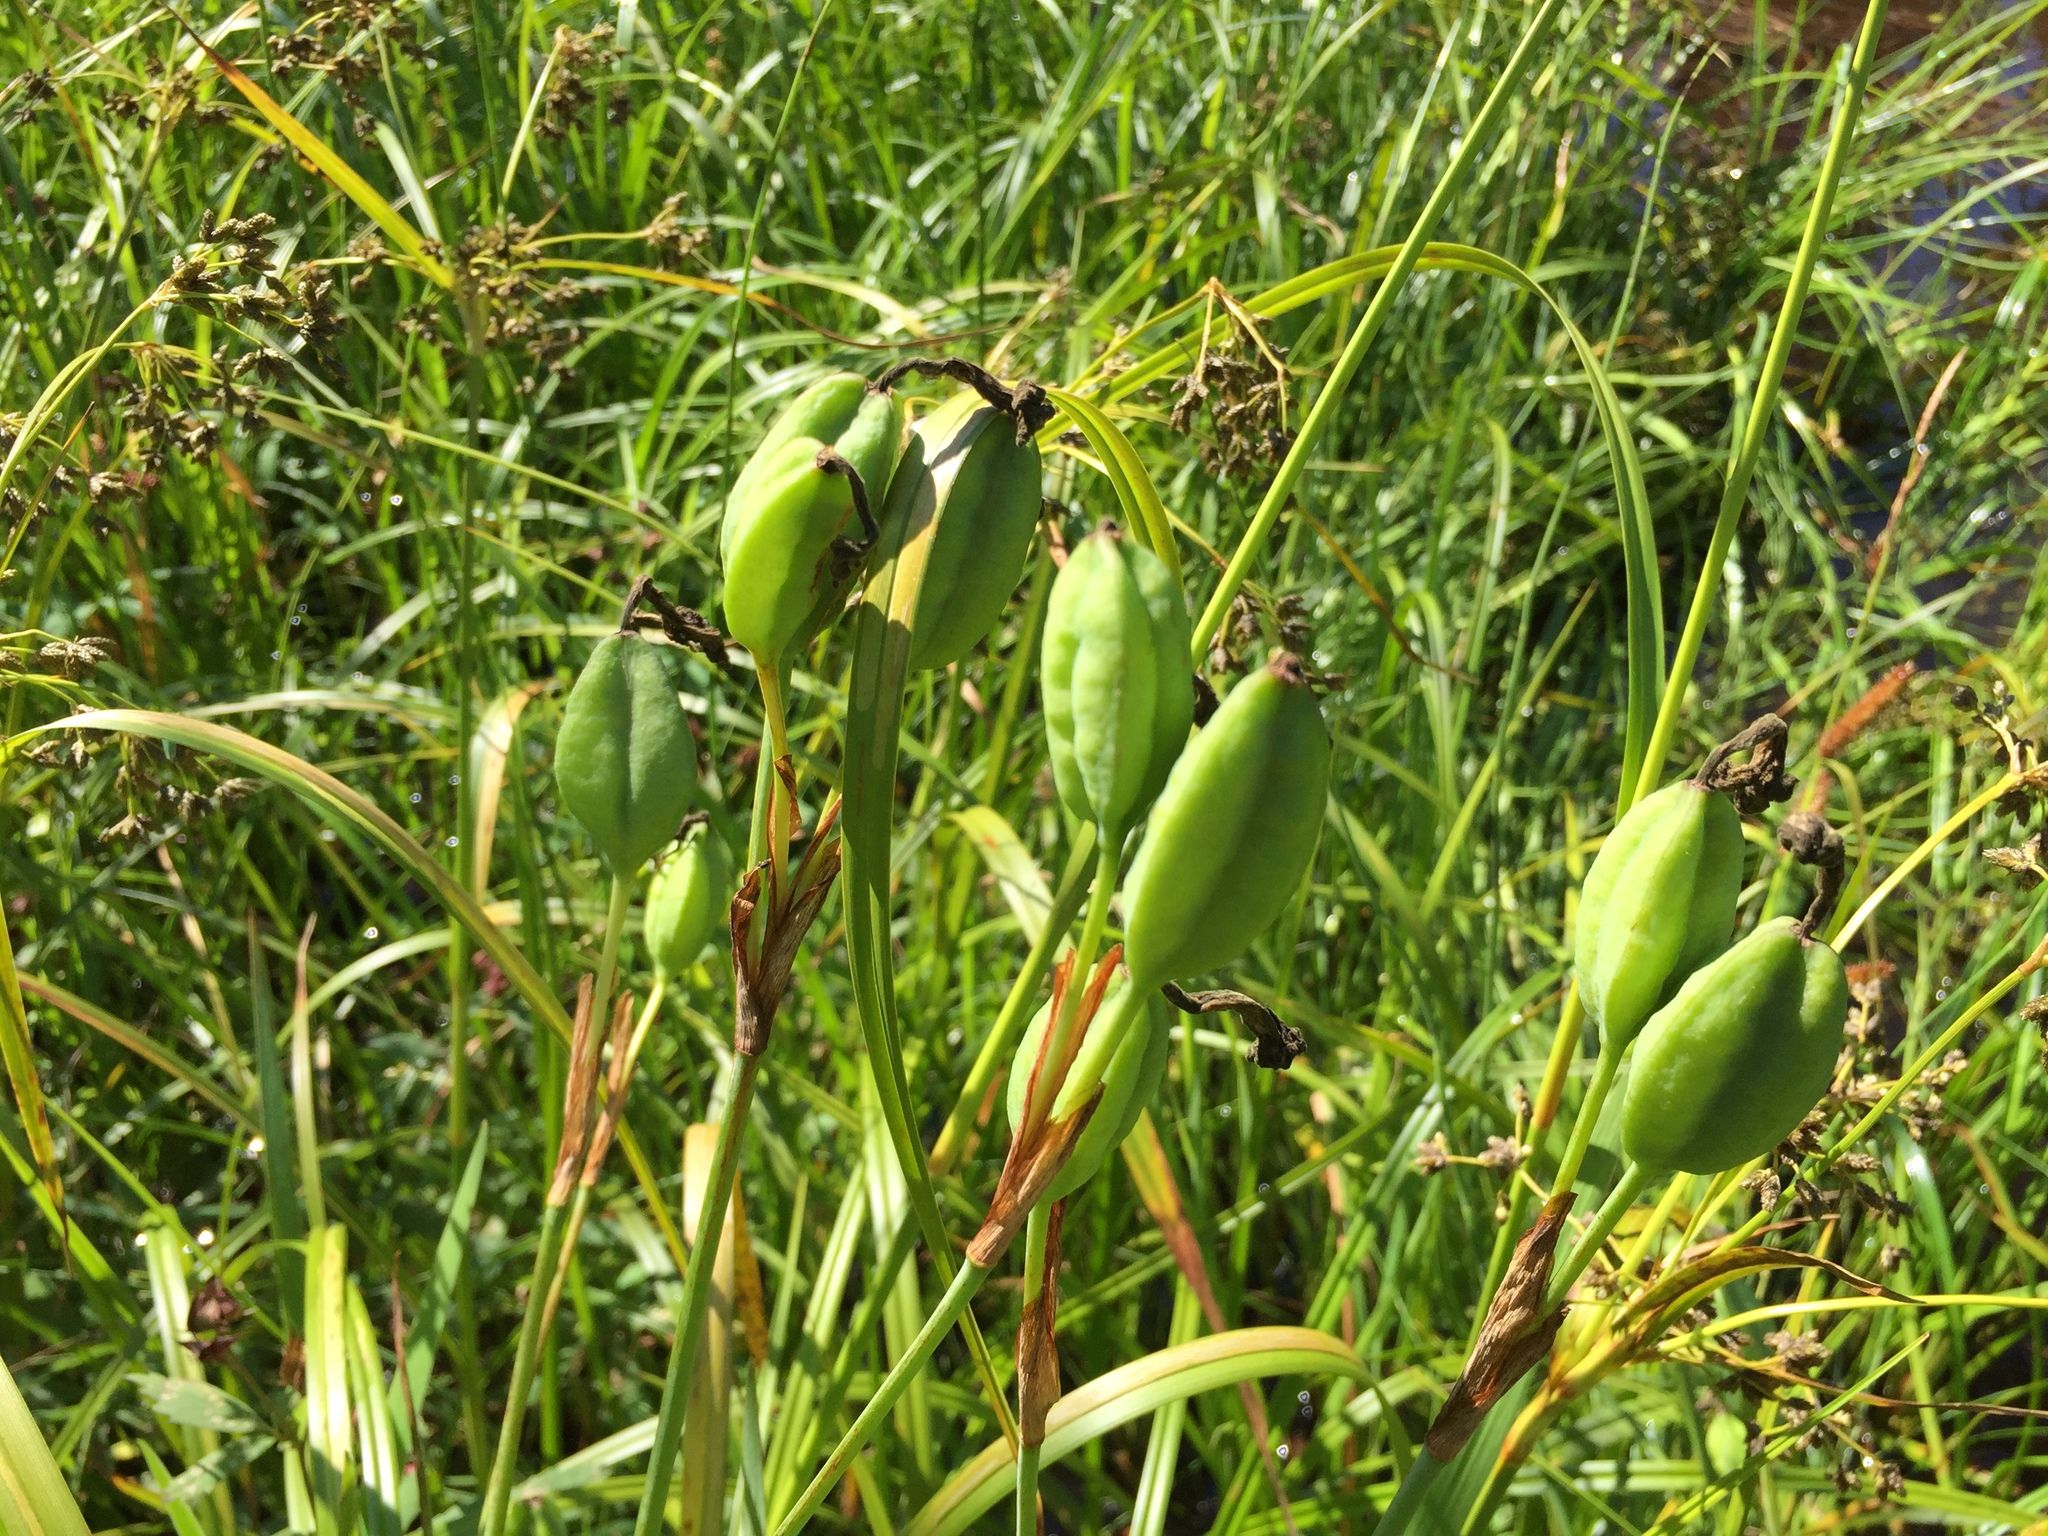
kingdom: Plantae
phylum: Tracheophyta
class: Liliopsida
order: Asparagales
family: Iridaceae
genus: Iris
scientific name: Iris setosa
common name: Arctic blue flag
